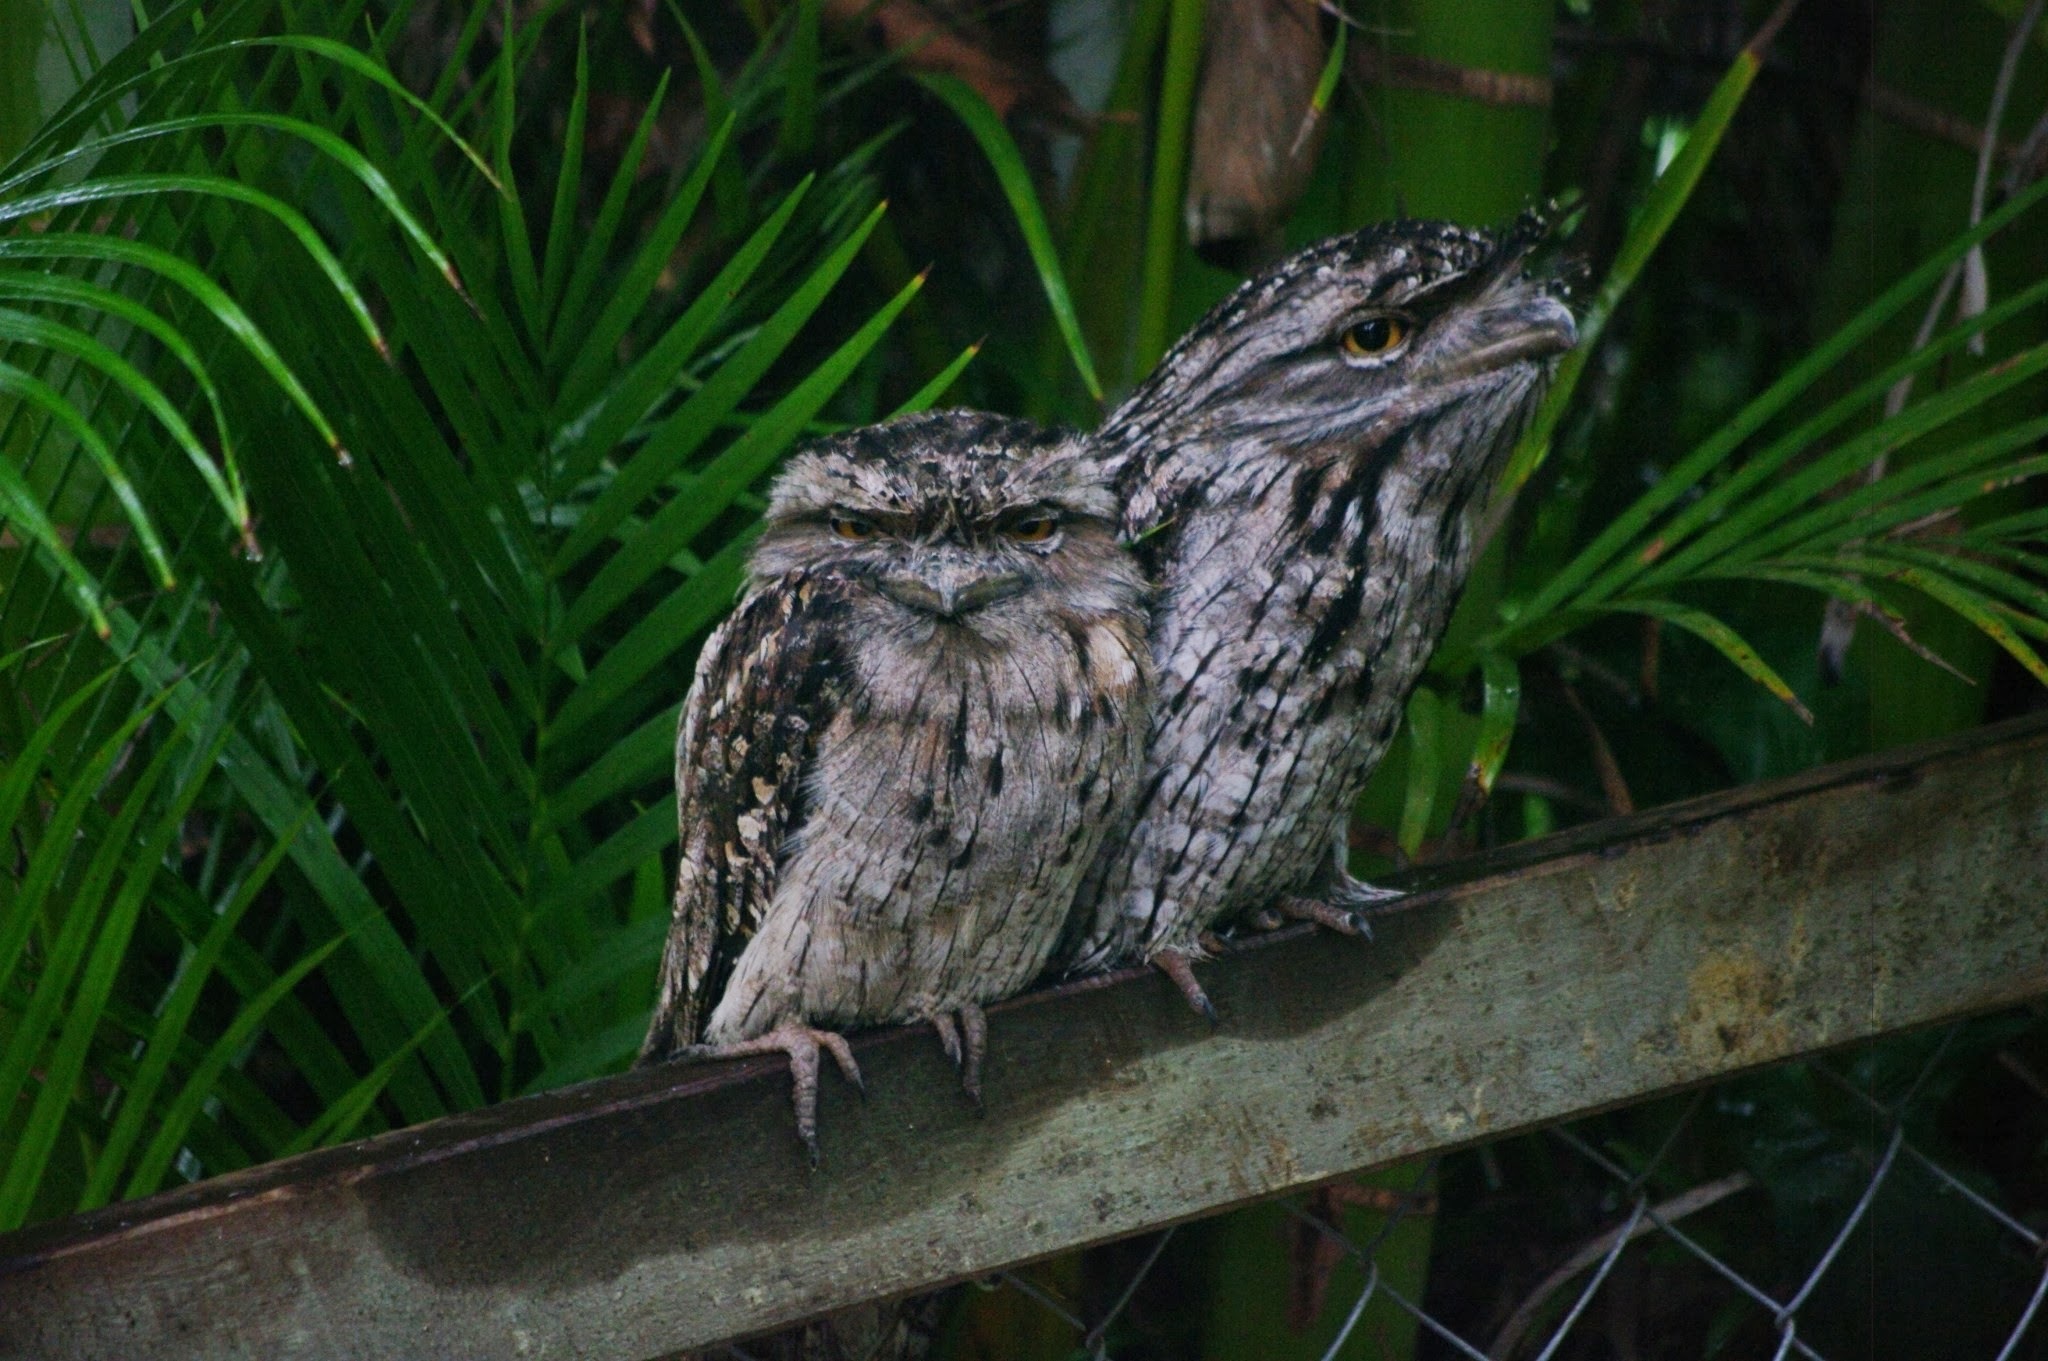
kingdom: Animalia
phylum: Chordata
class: Aves
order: Caprimulgiformes
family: Podargidae
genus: Podargus
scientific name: Podargus strigoides
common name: Tawny frogmouth
